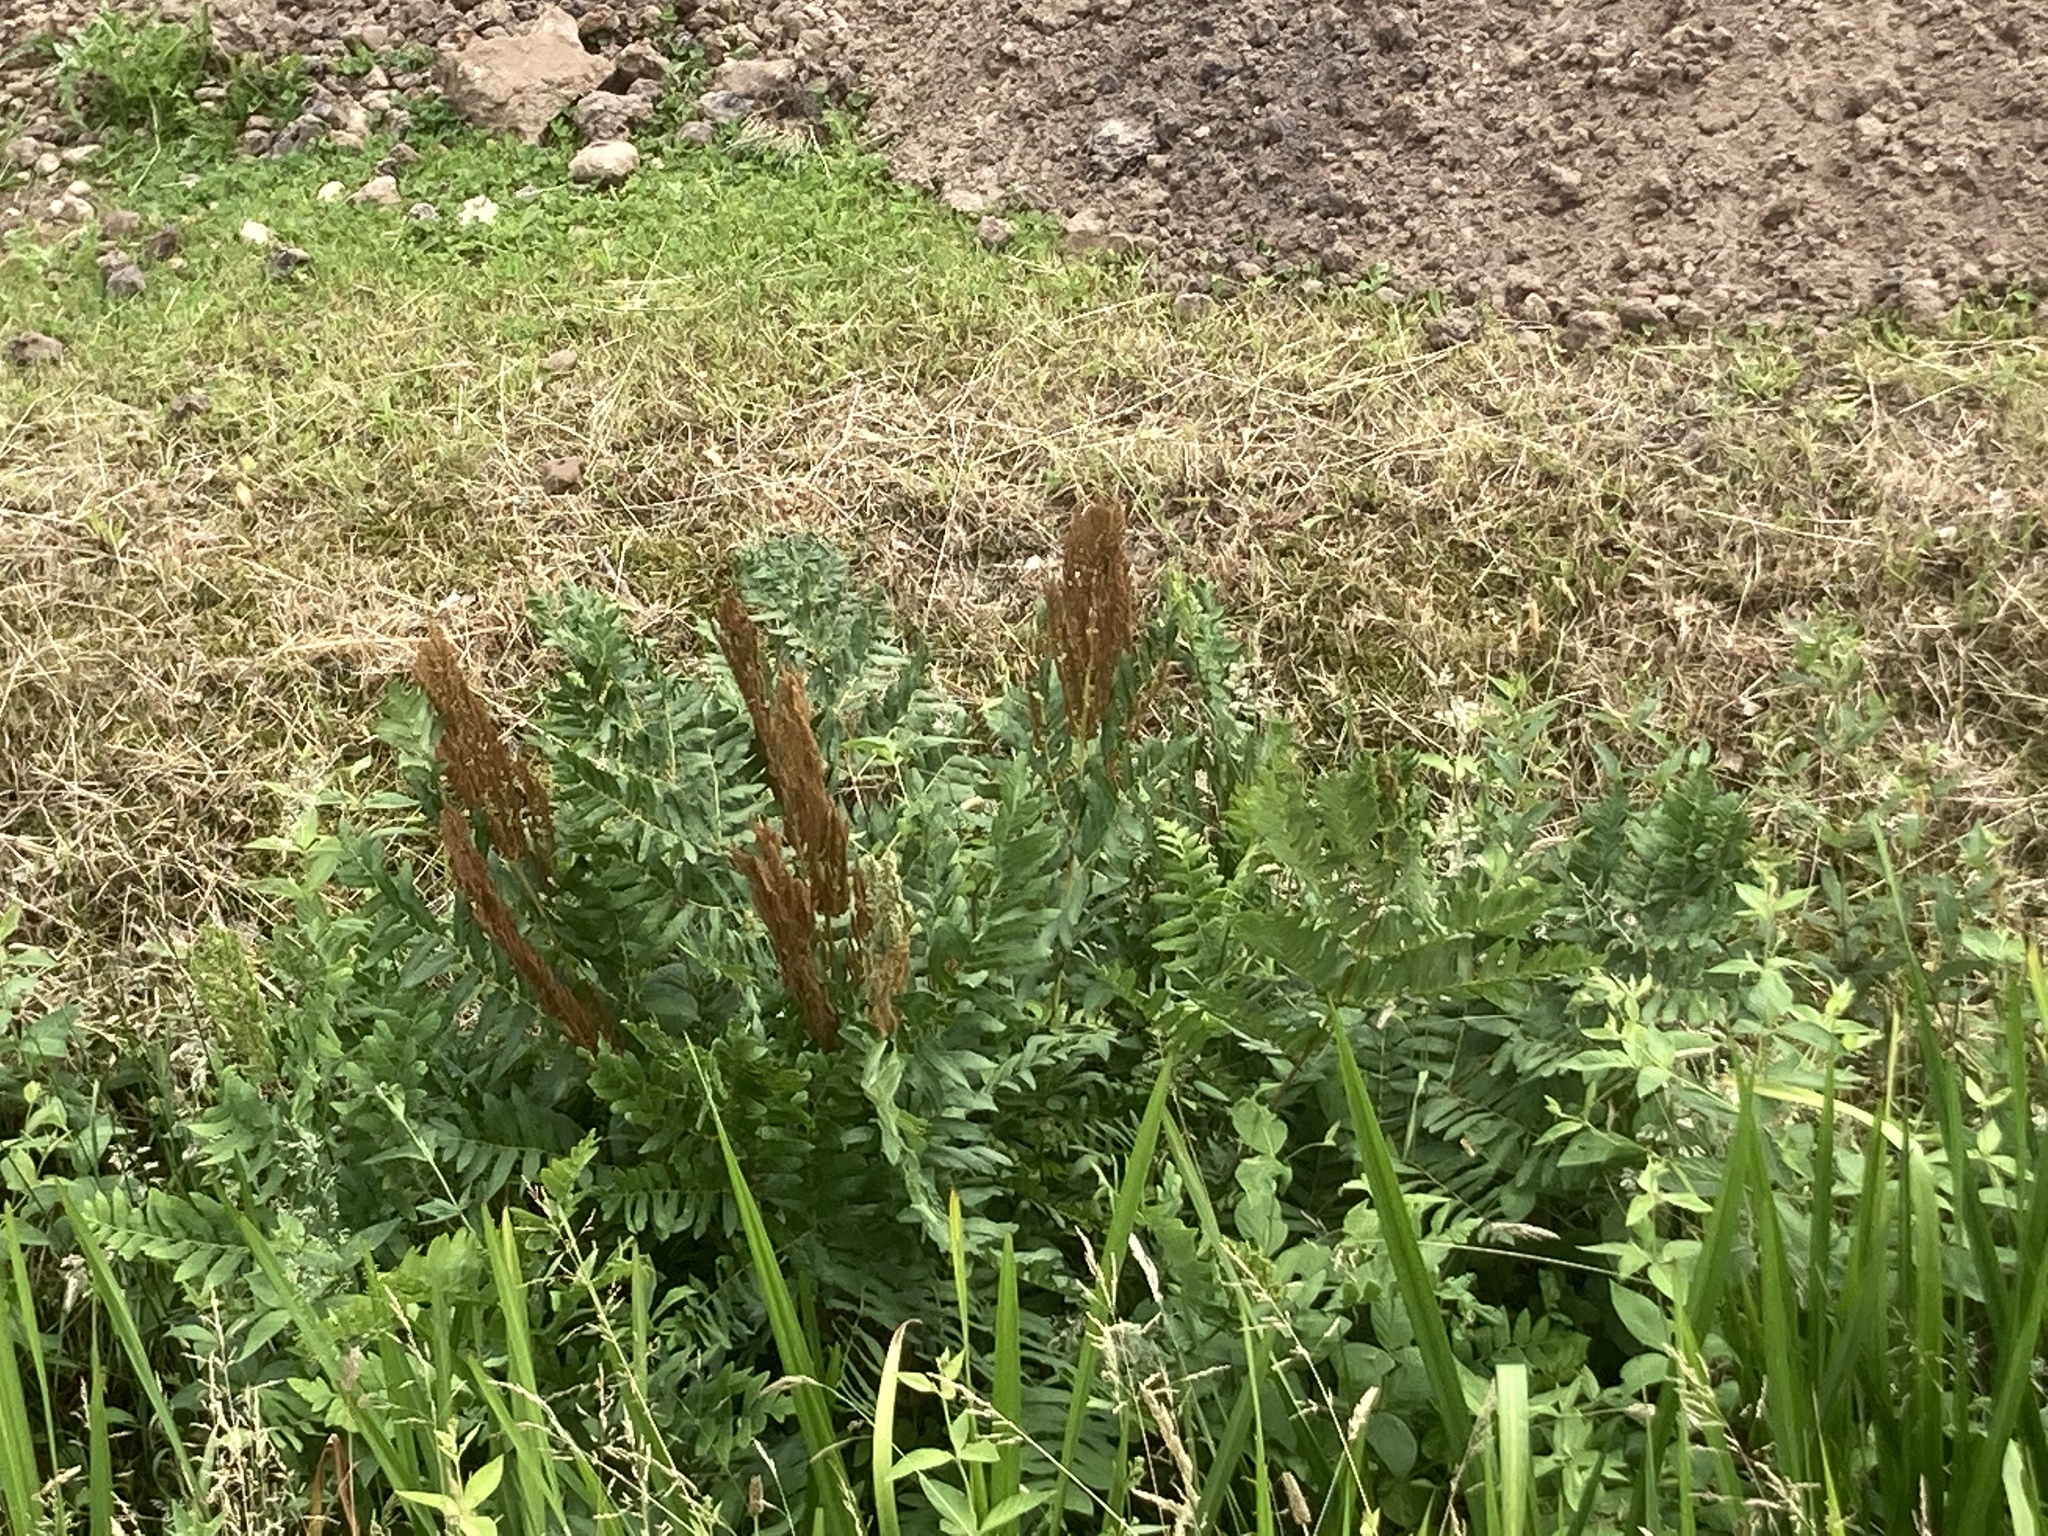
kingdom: Plantae
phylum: Tracheophyta
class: Polypodiopsida
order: Osmundales
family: Osmundaceae
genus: Osmunda
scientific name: Osmunda regalis
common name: Royal fern
